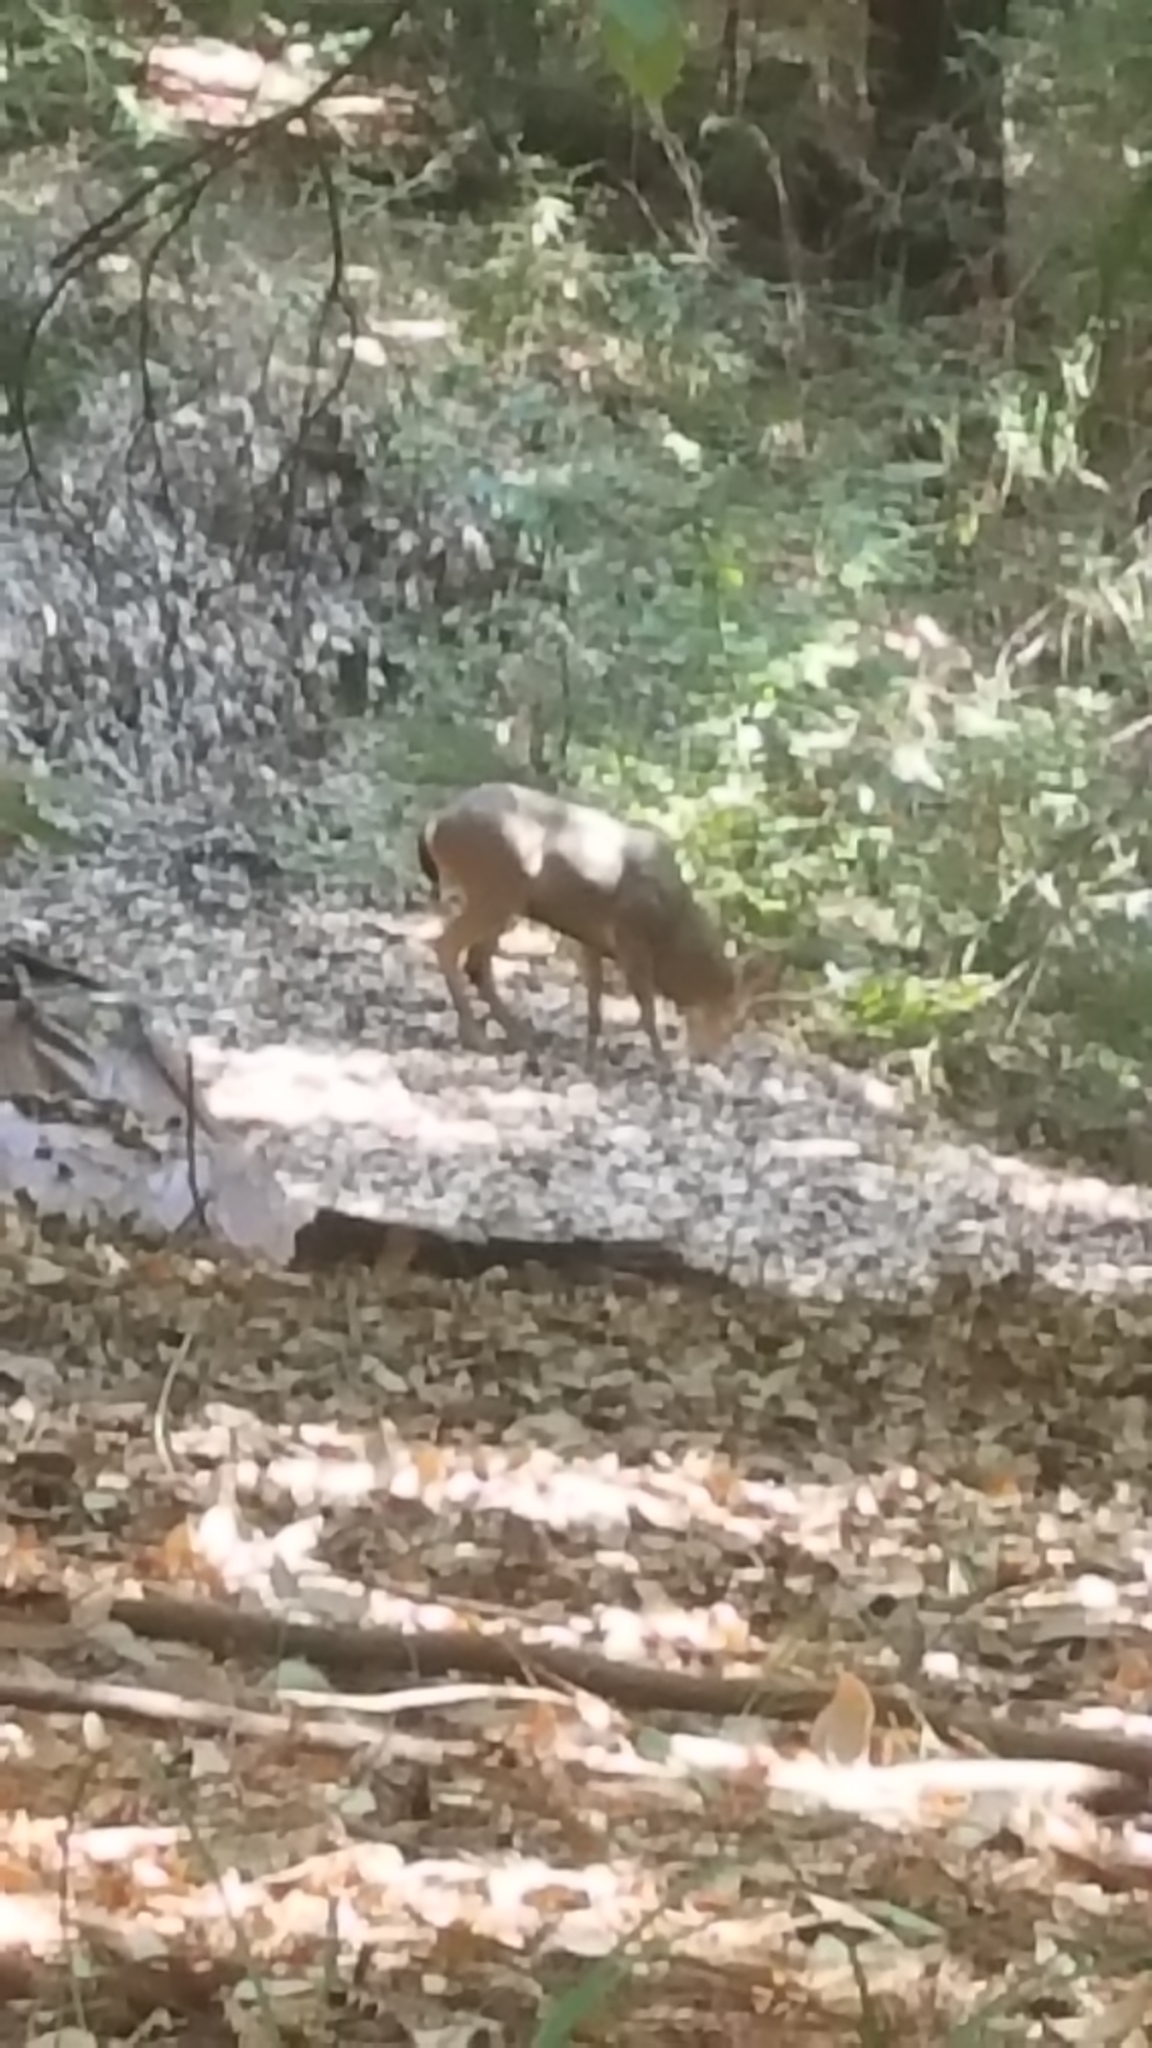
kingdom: Animalia
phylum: Chordata
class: Mammalia
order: Artiodactyla
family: Cervidae
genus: Odocoileus
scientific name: Odocoileus hemionus
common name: Mule deer
